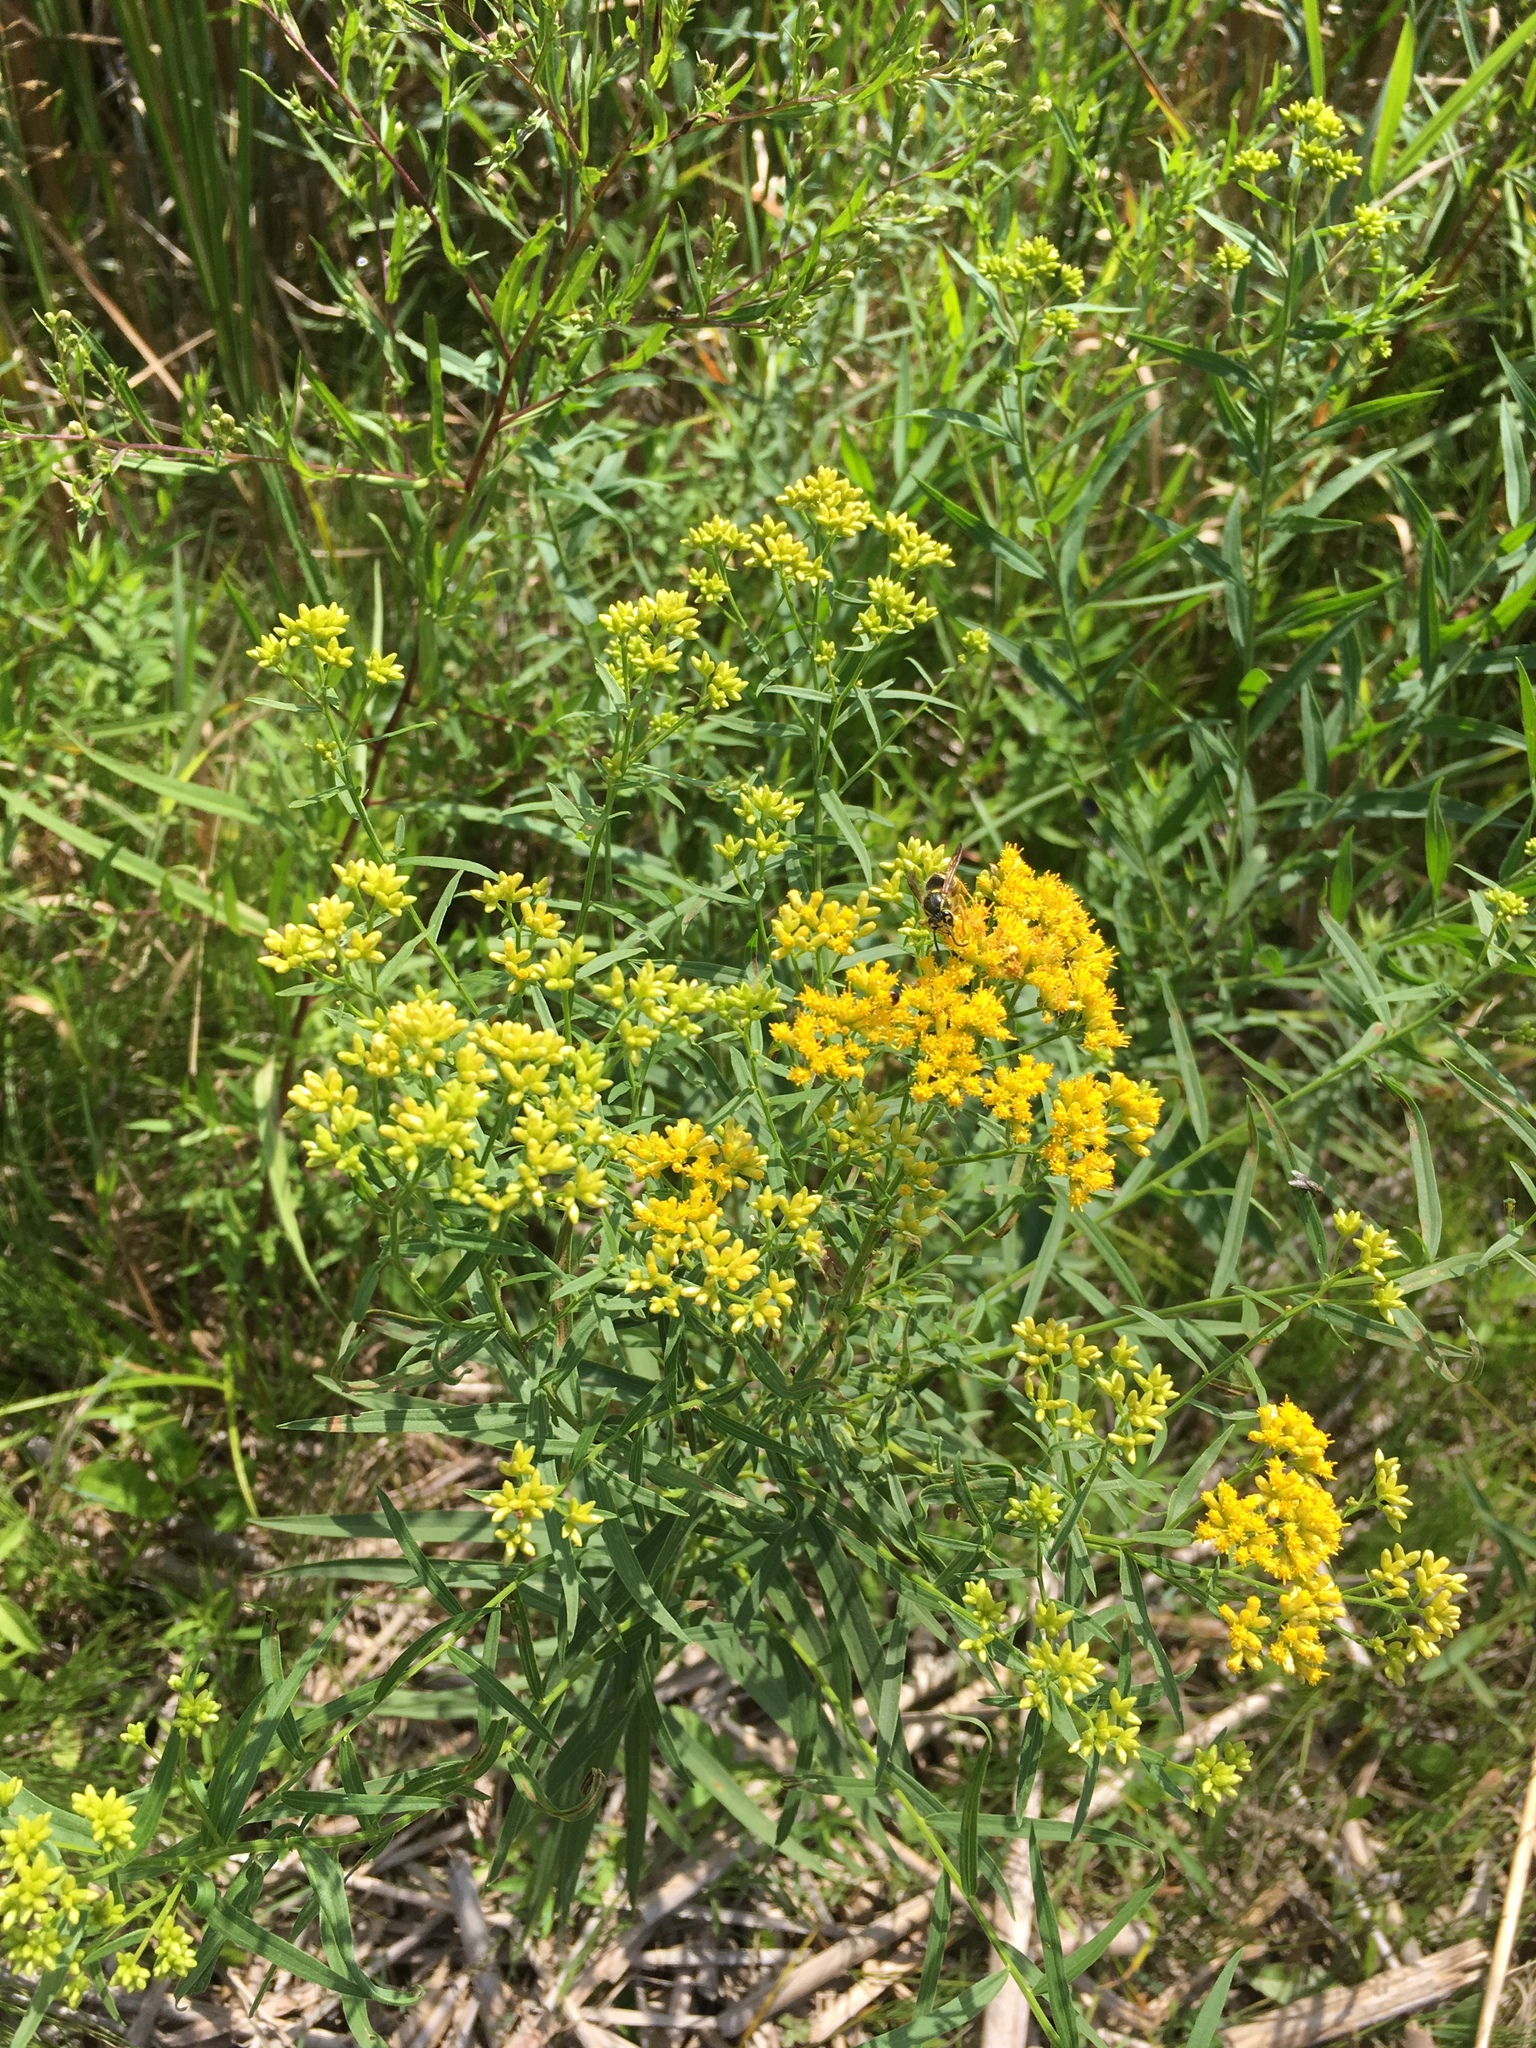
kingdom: Plantae
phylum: Tracheophyta
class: Magnoliopsida
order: Asterales
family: Asteraceae
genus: Euthamia
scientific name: Euthamia graminifolia
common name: Common goldentop
